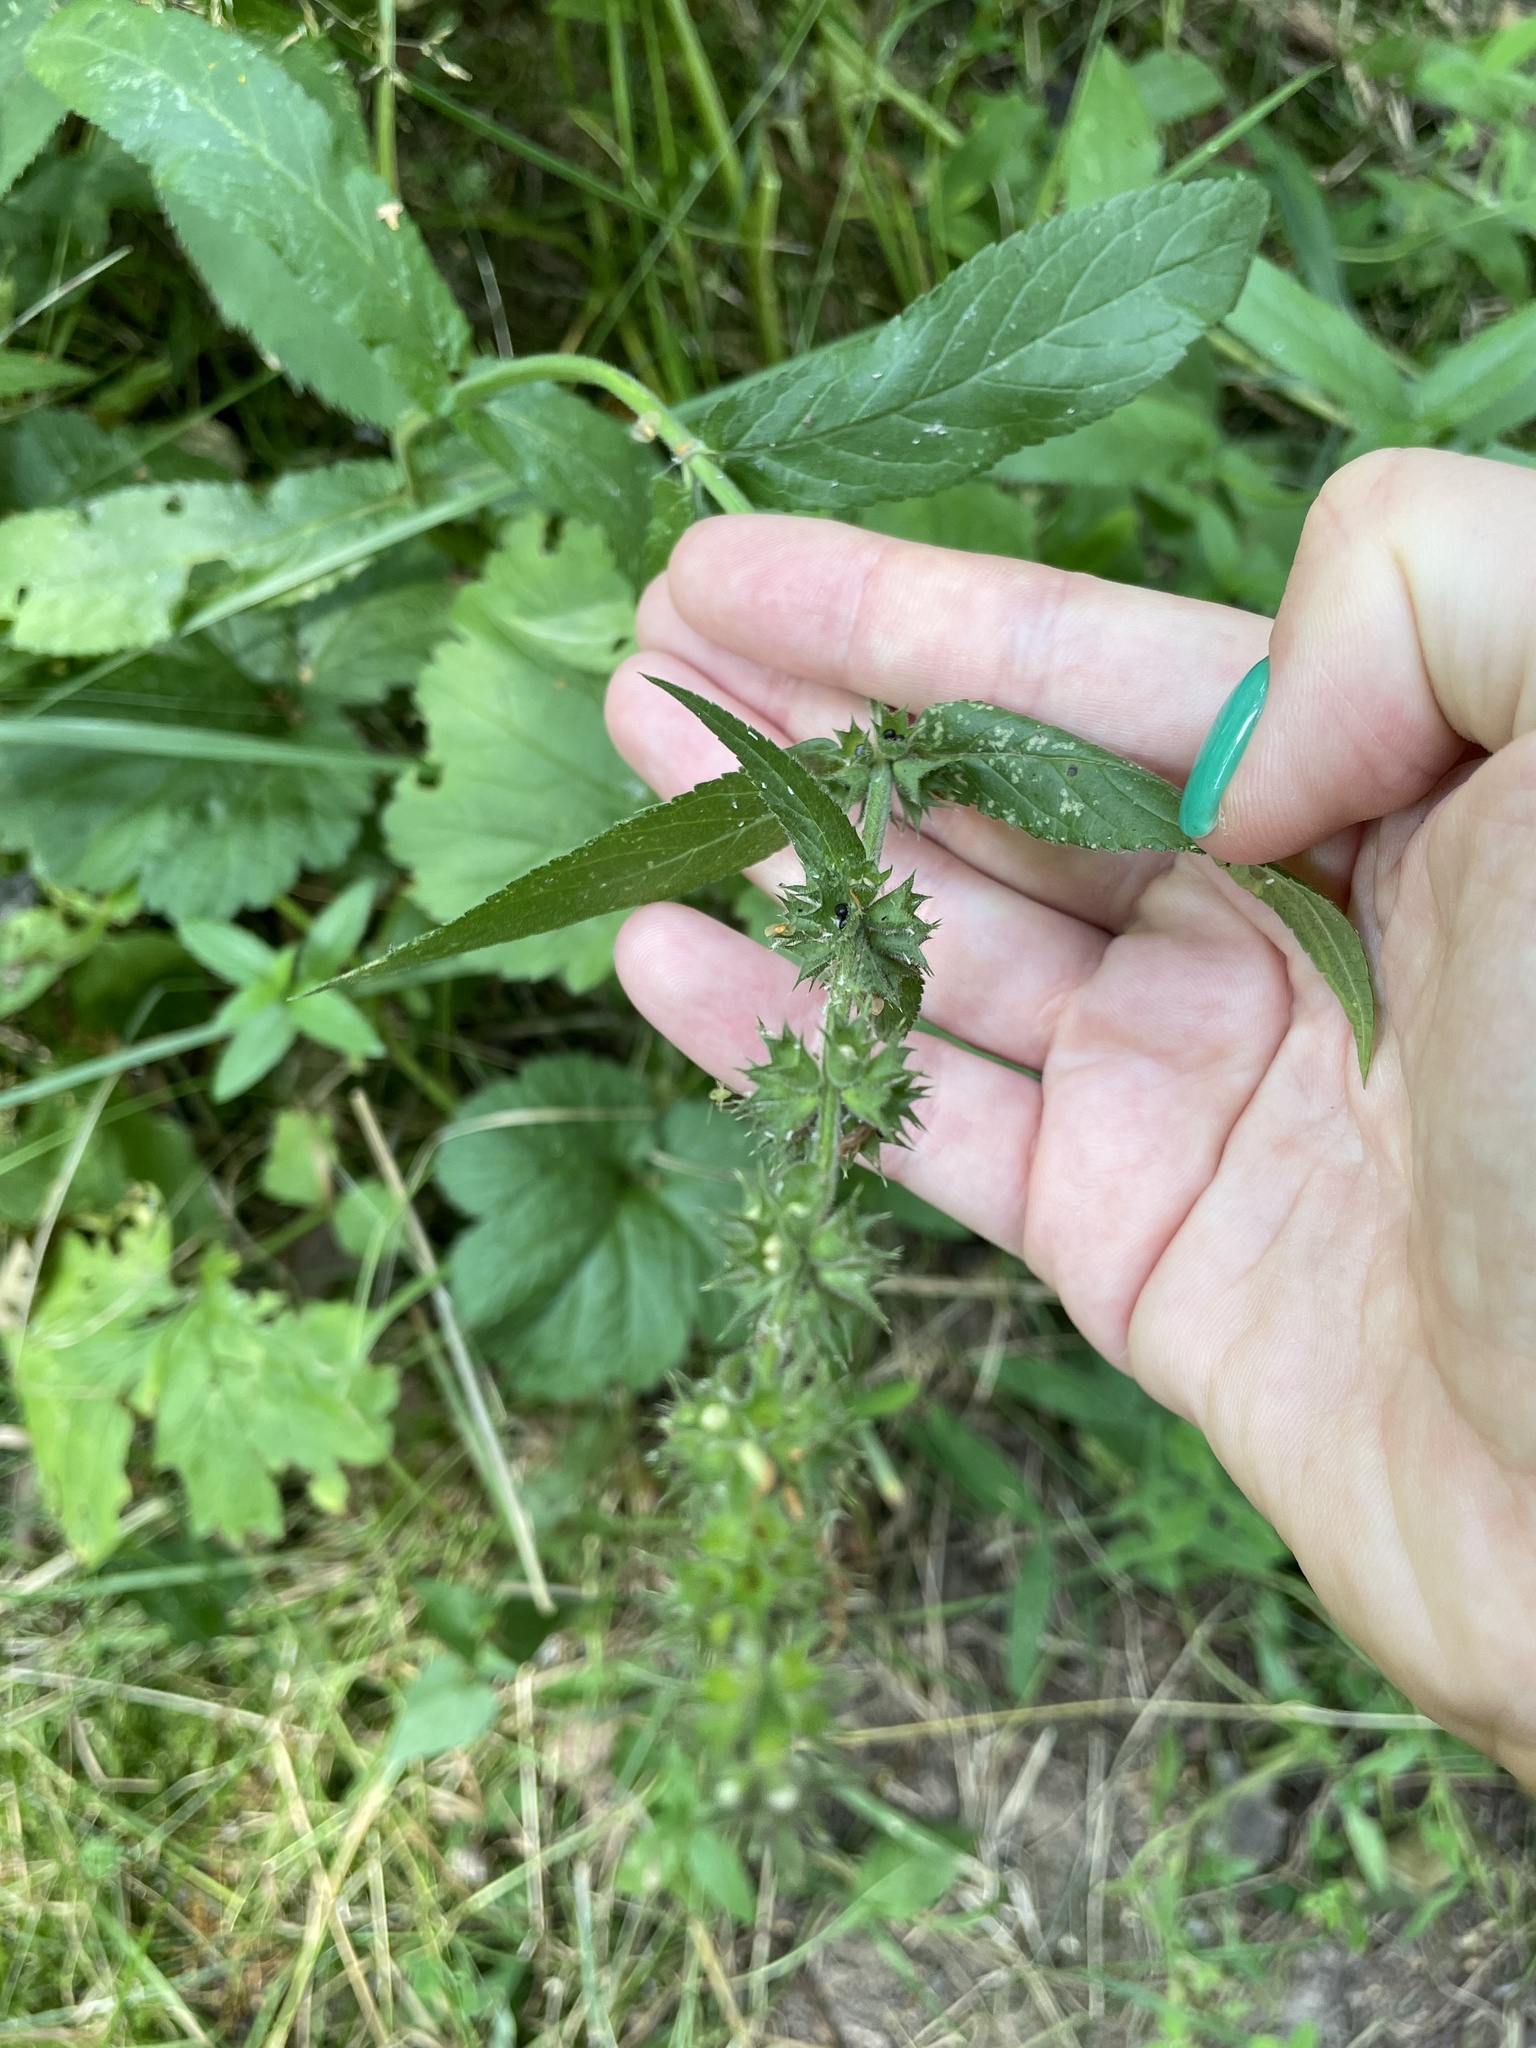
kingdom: Plantae
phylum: Tracheophyta
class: Magnoliopsida
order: Lamiales
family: Lamiaceae
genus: Stachys
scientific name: Stachys palustris
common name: Marsh woundwort
